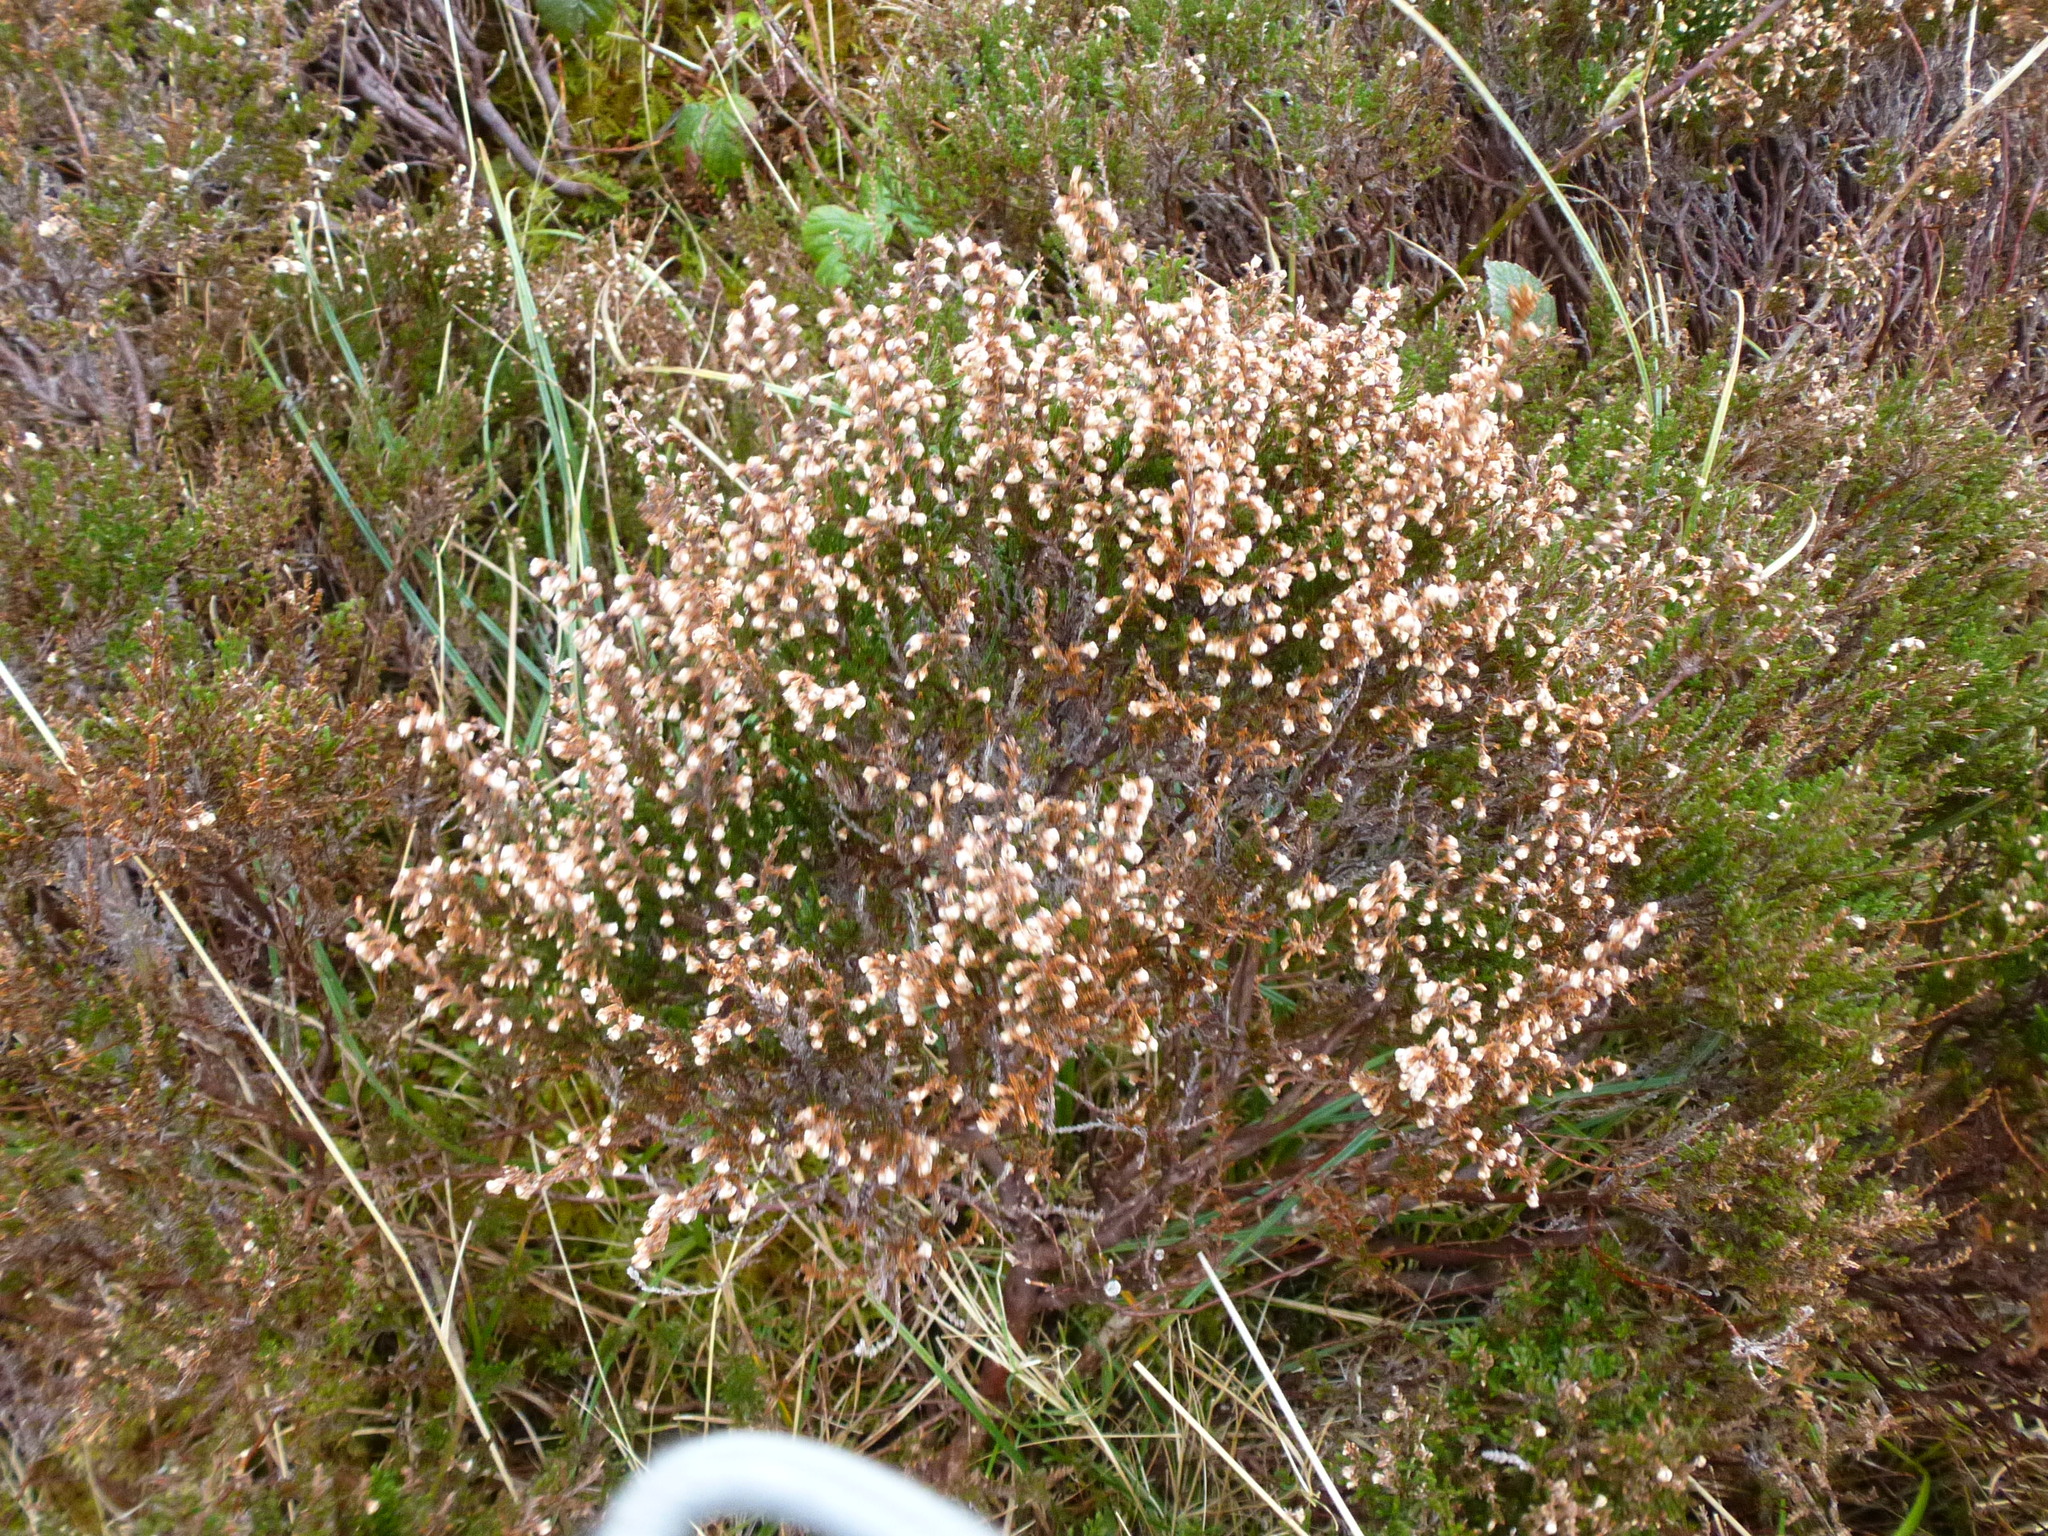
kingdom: Plantae
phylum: Tracheophyta
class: Magnoliopsida
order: Ericales
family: Ericaceae
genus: Calluna
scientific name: Calluna vulgaris
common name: Heather
